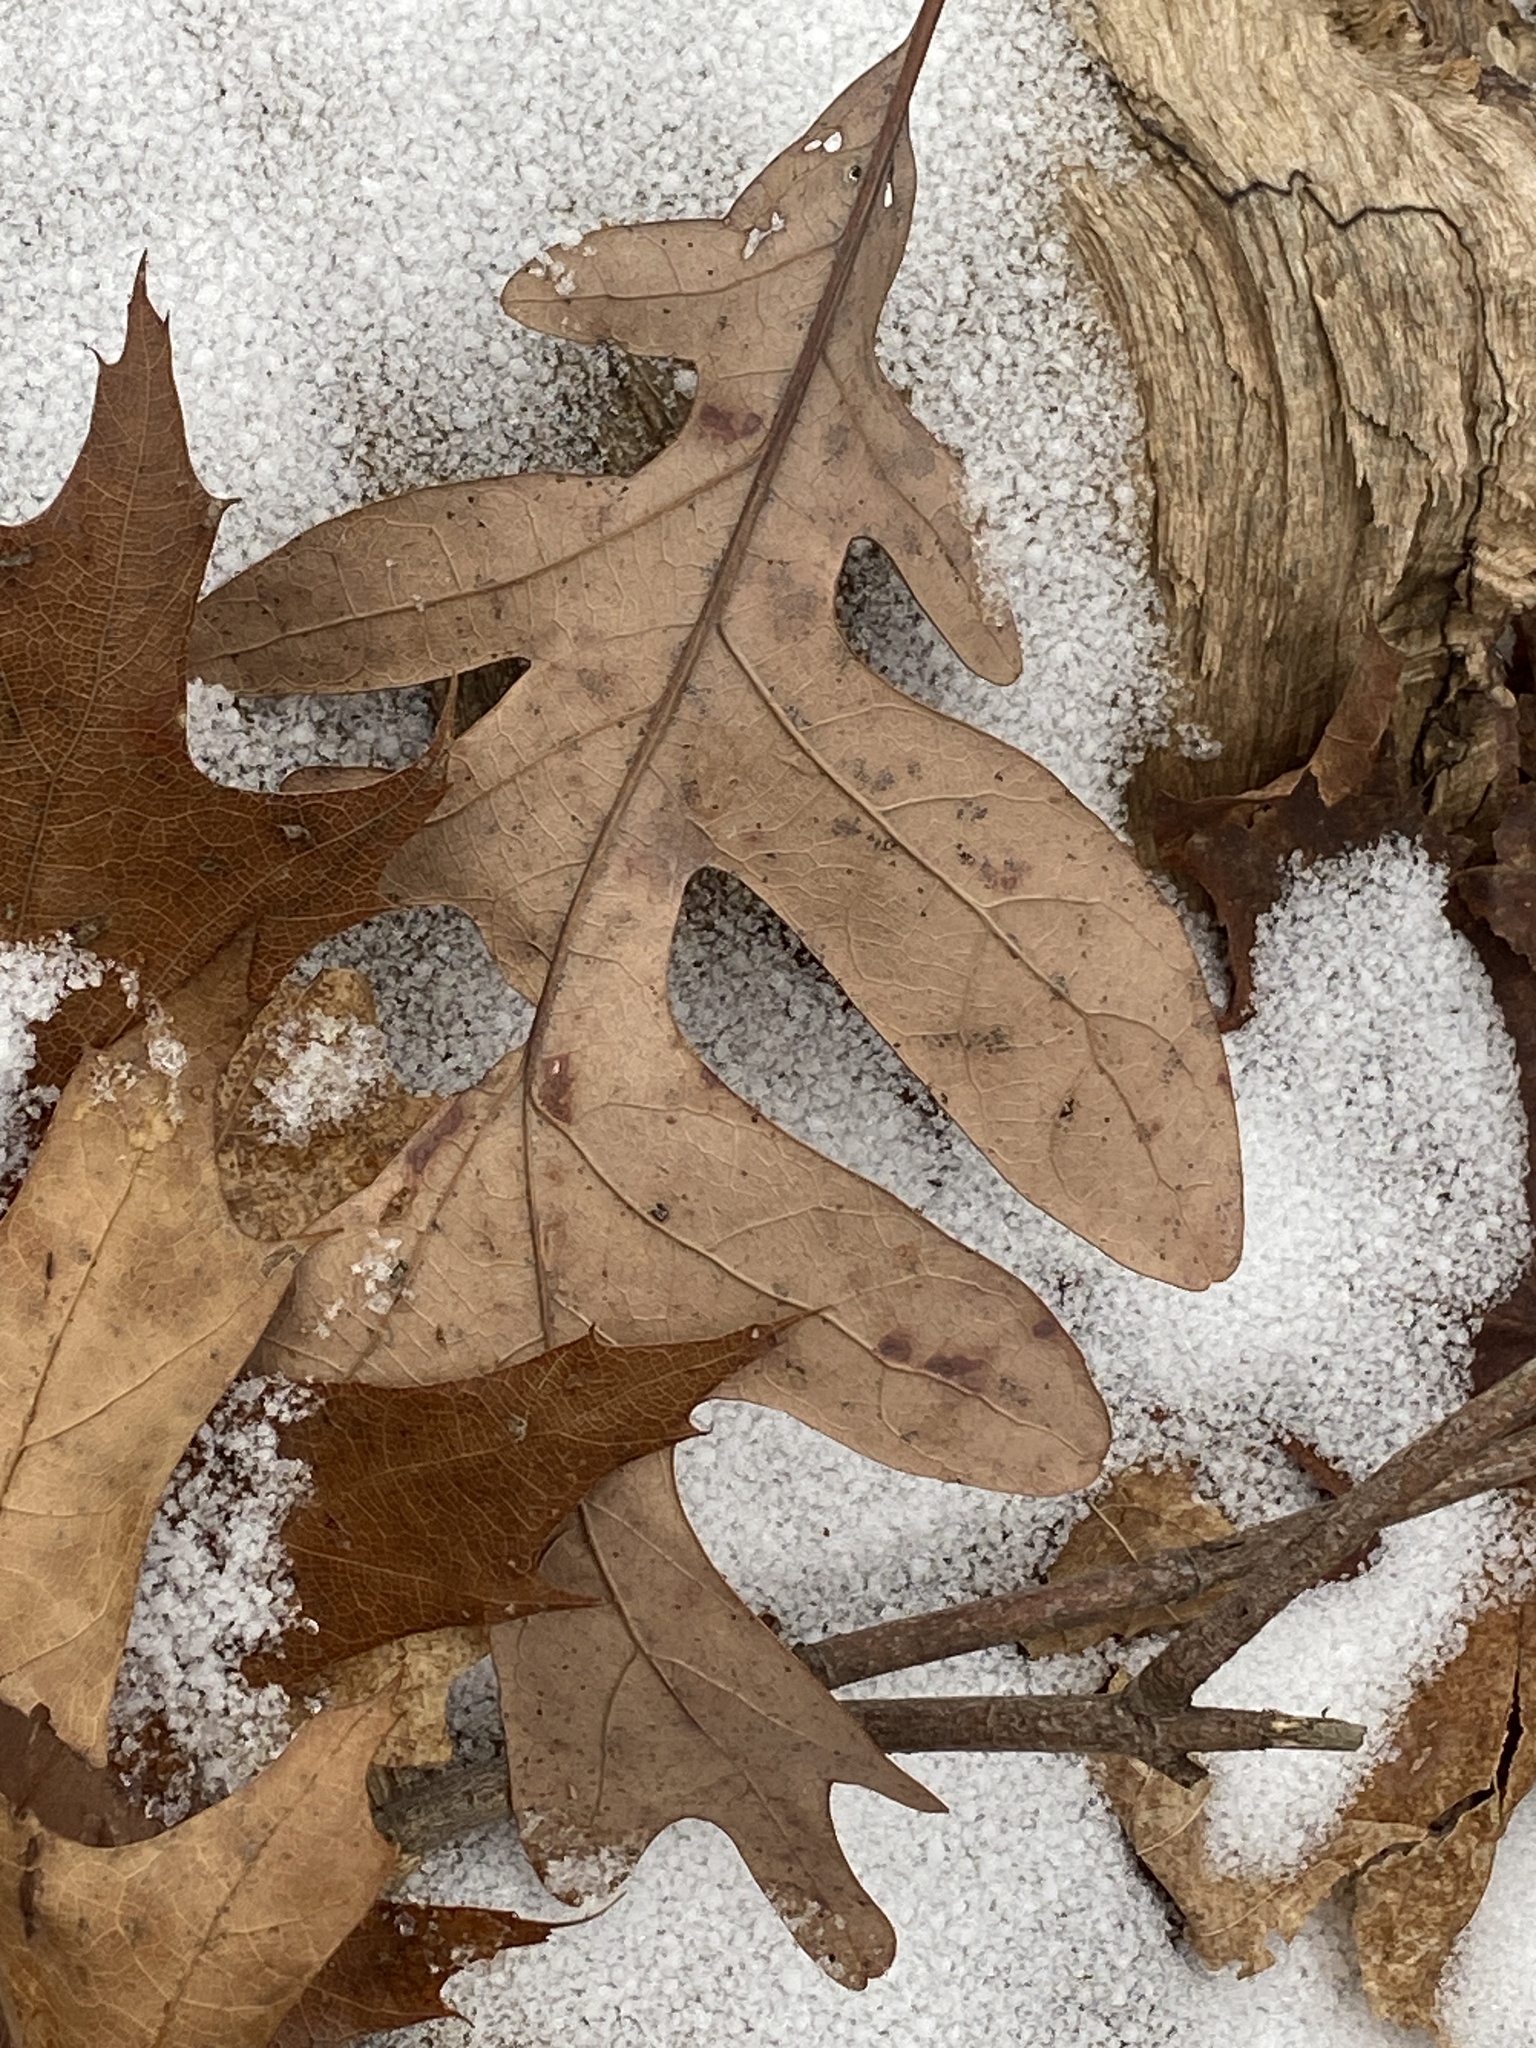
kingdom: Plantae
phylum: Tracheophyta
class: Magnoliopsida
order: Fagales
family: Fagaceae
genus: Quercus
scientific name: Quercus alba
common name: White oak
